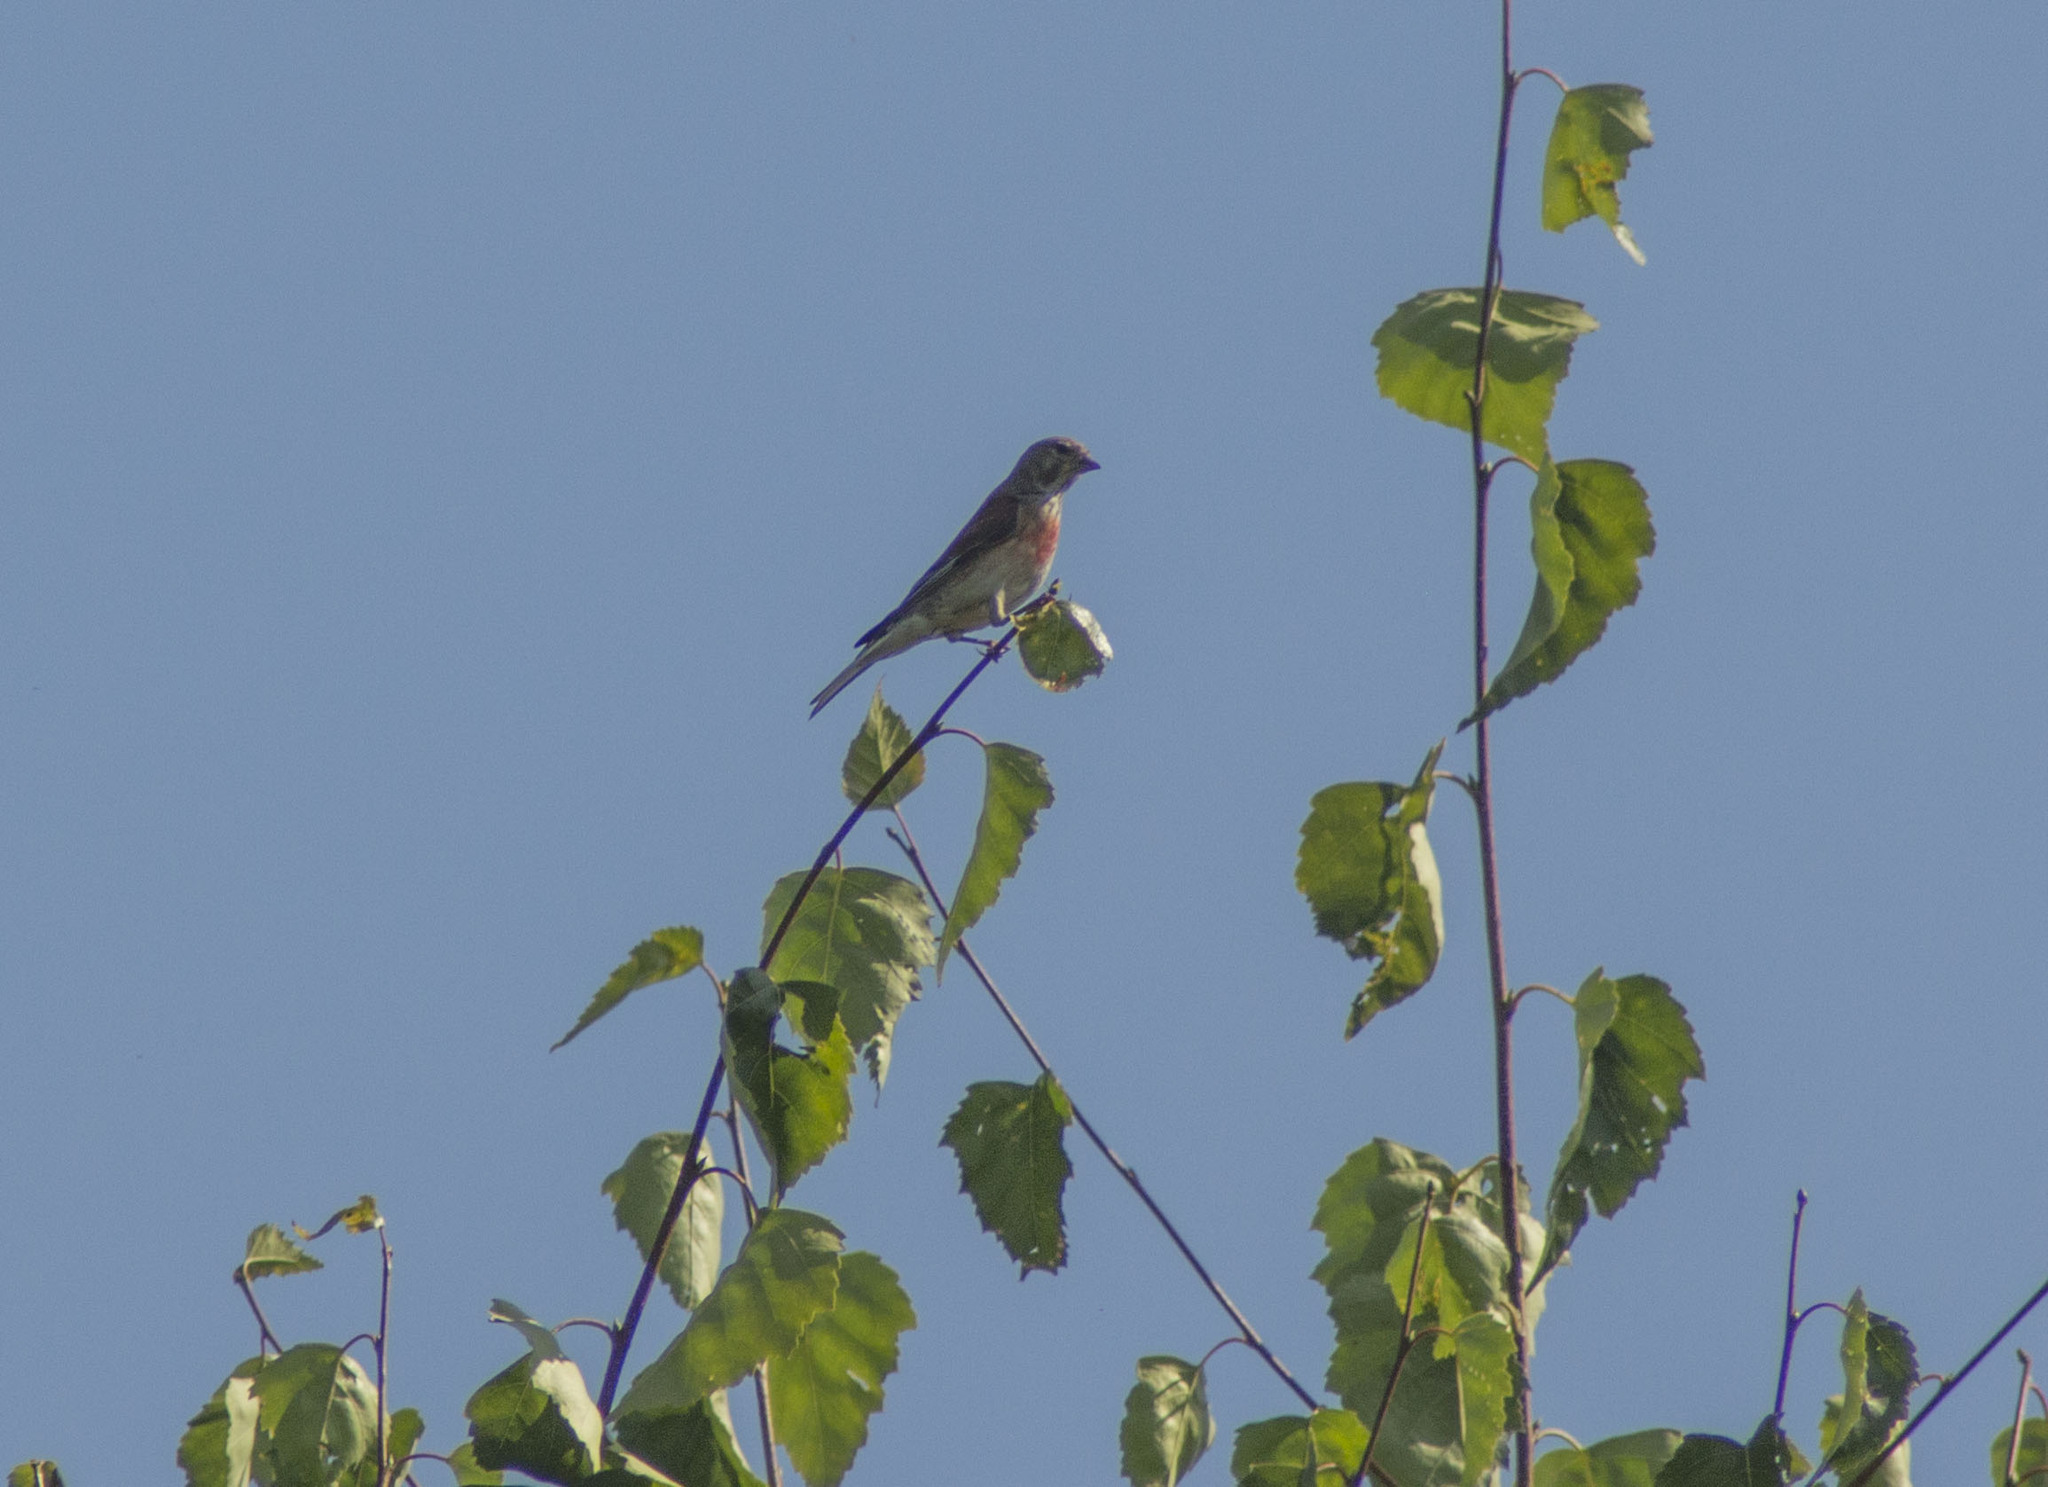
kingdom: Animalia
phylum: Chordata
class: Aves
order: Passeriformes
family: Fringillidae
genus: Linaria
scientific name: Linaria cannabina
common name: Common linnet
